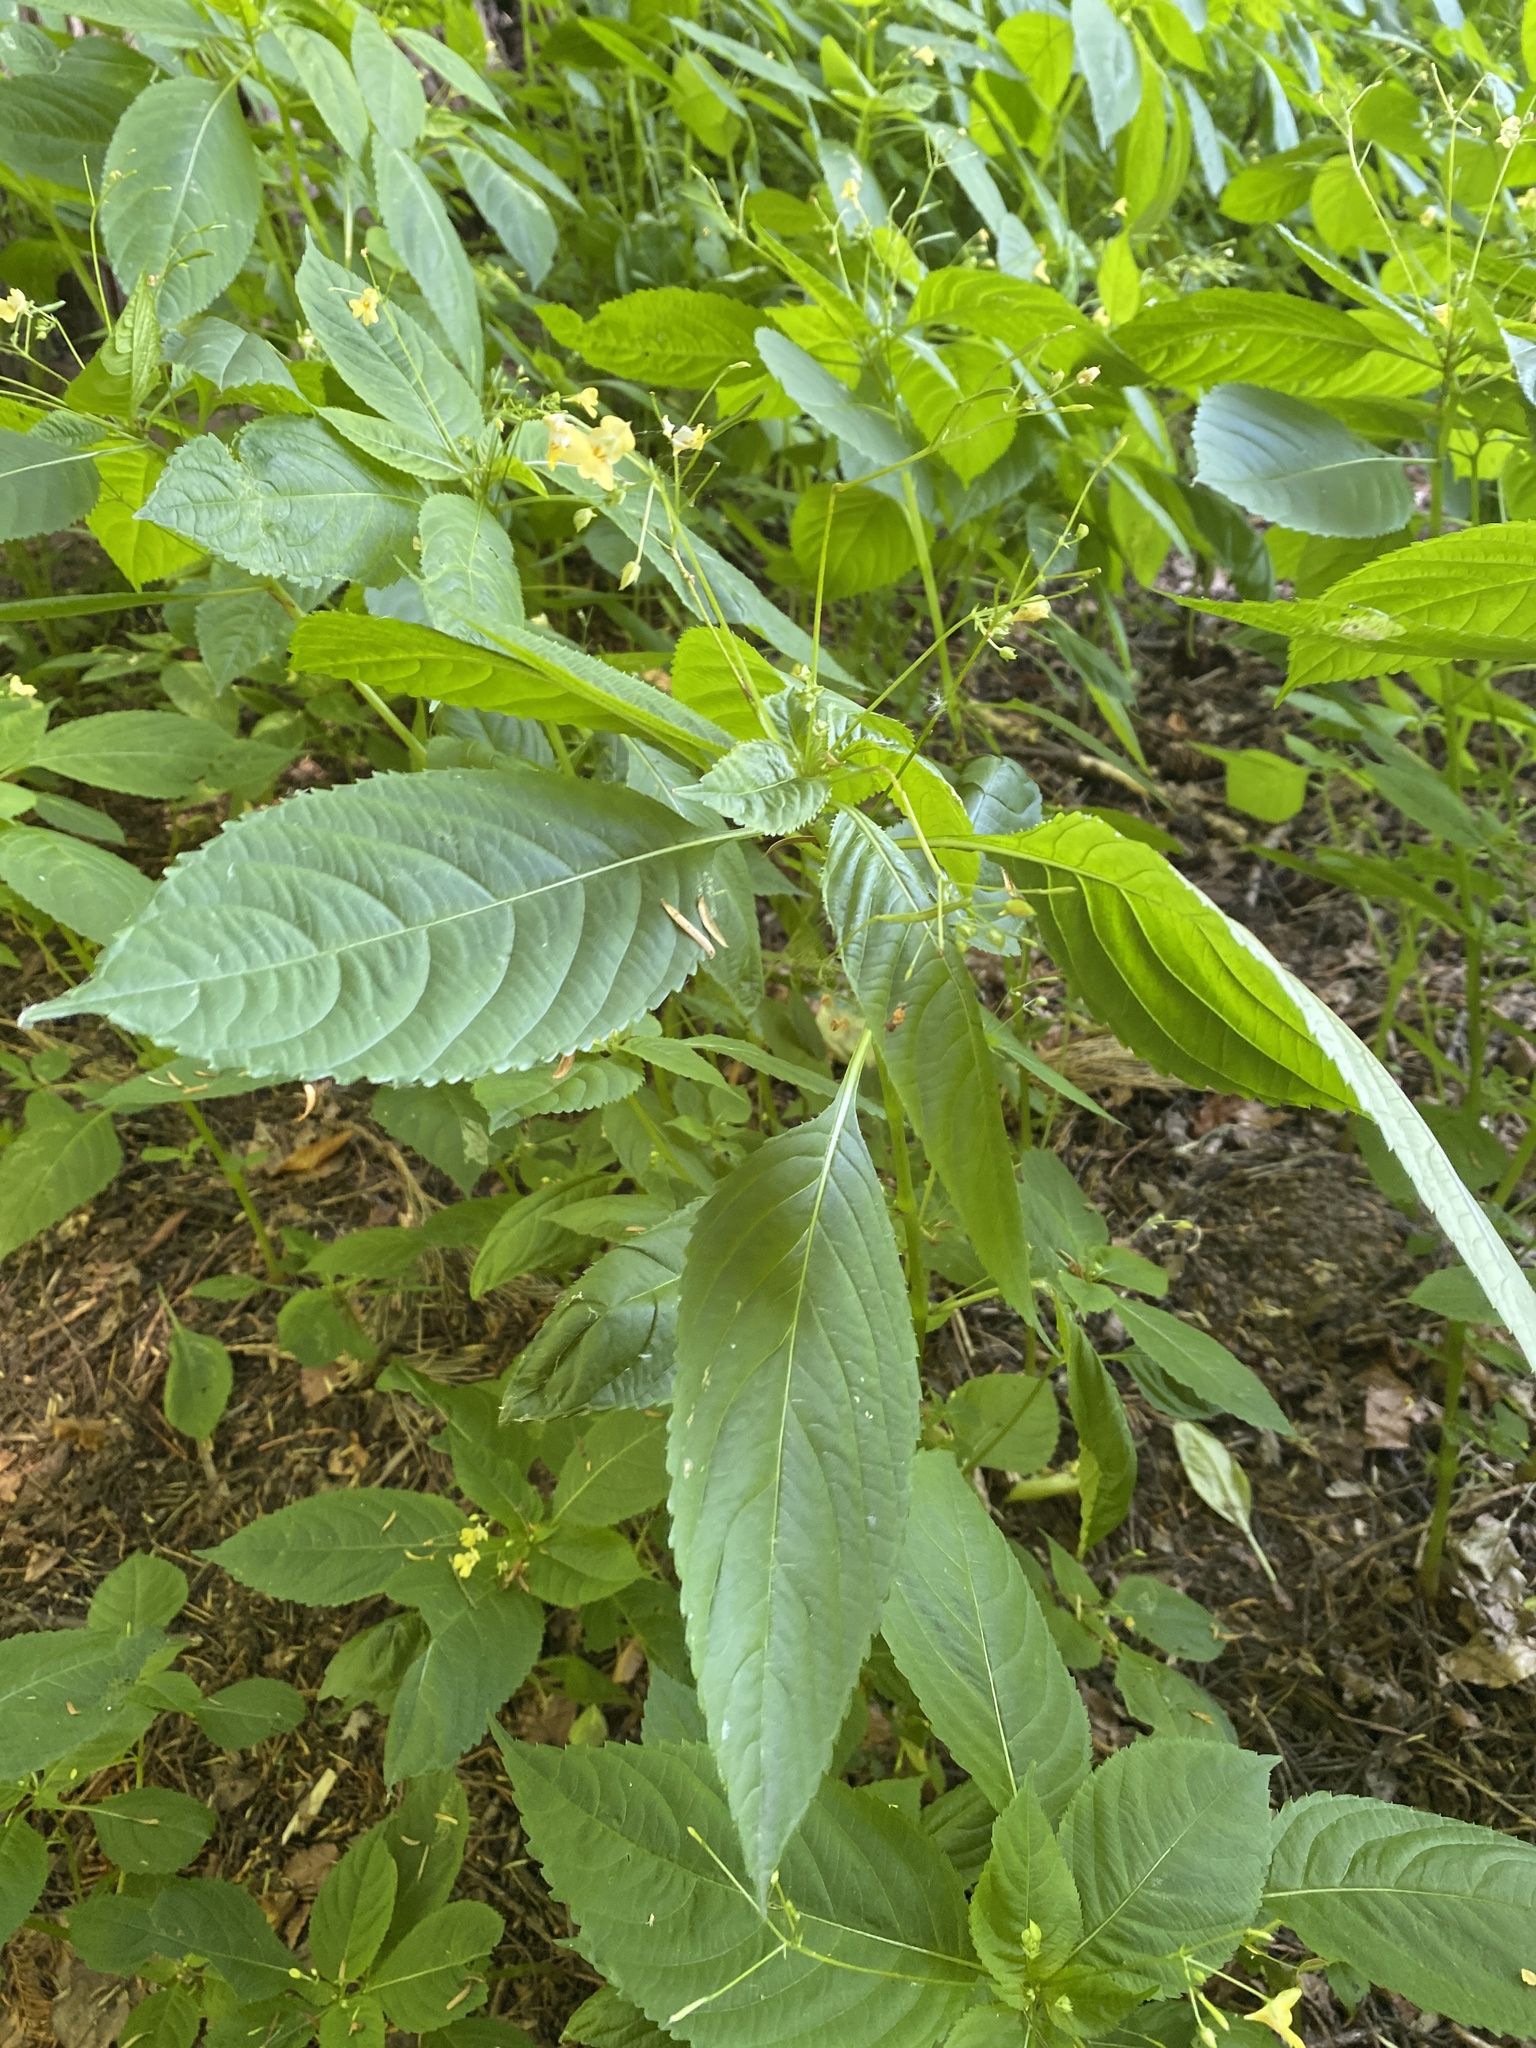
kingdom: Plantae
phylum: Tracheophyta
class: Magnoliopsida
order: Ericales
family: Balsaminaceae
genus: Impatiens
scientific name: Impatiens parviflora
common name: Small balsam
